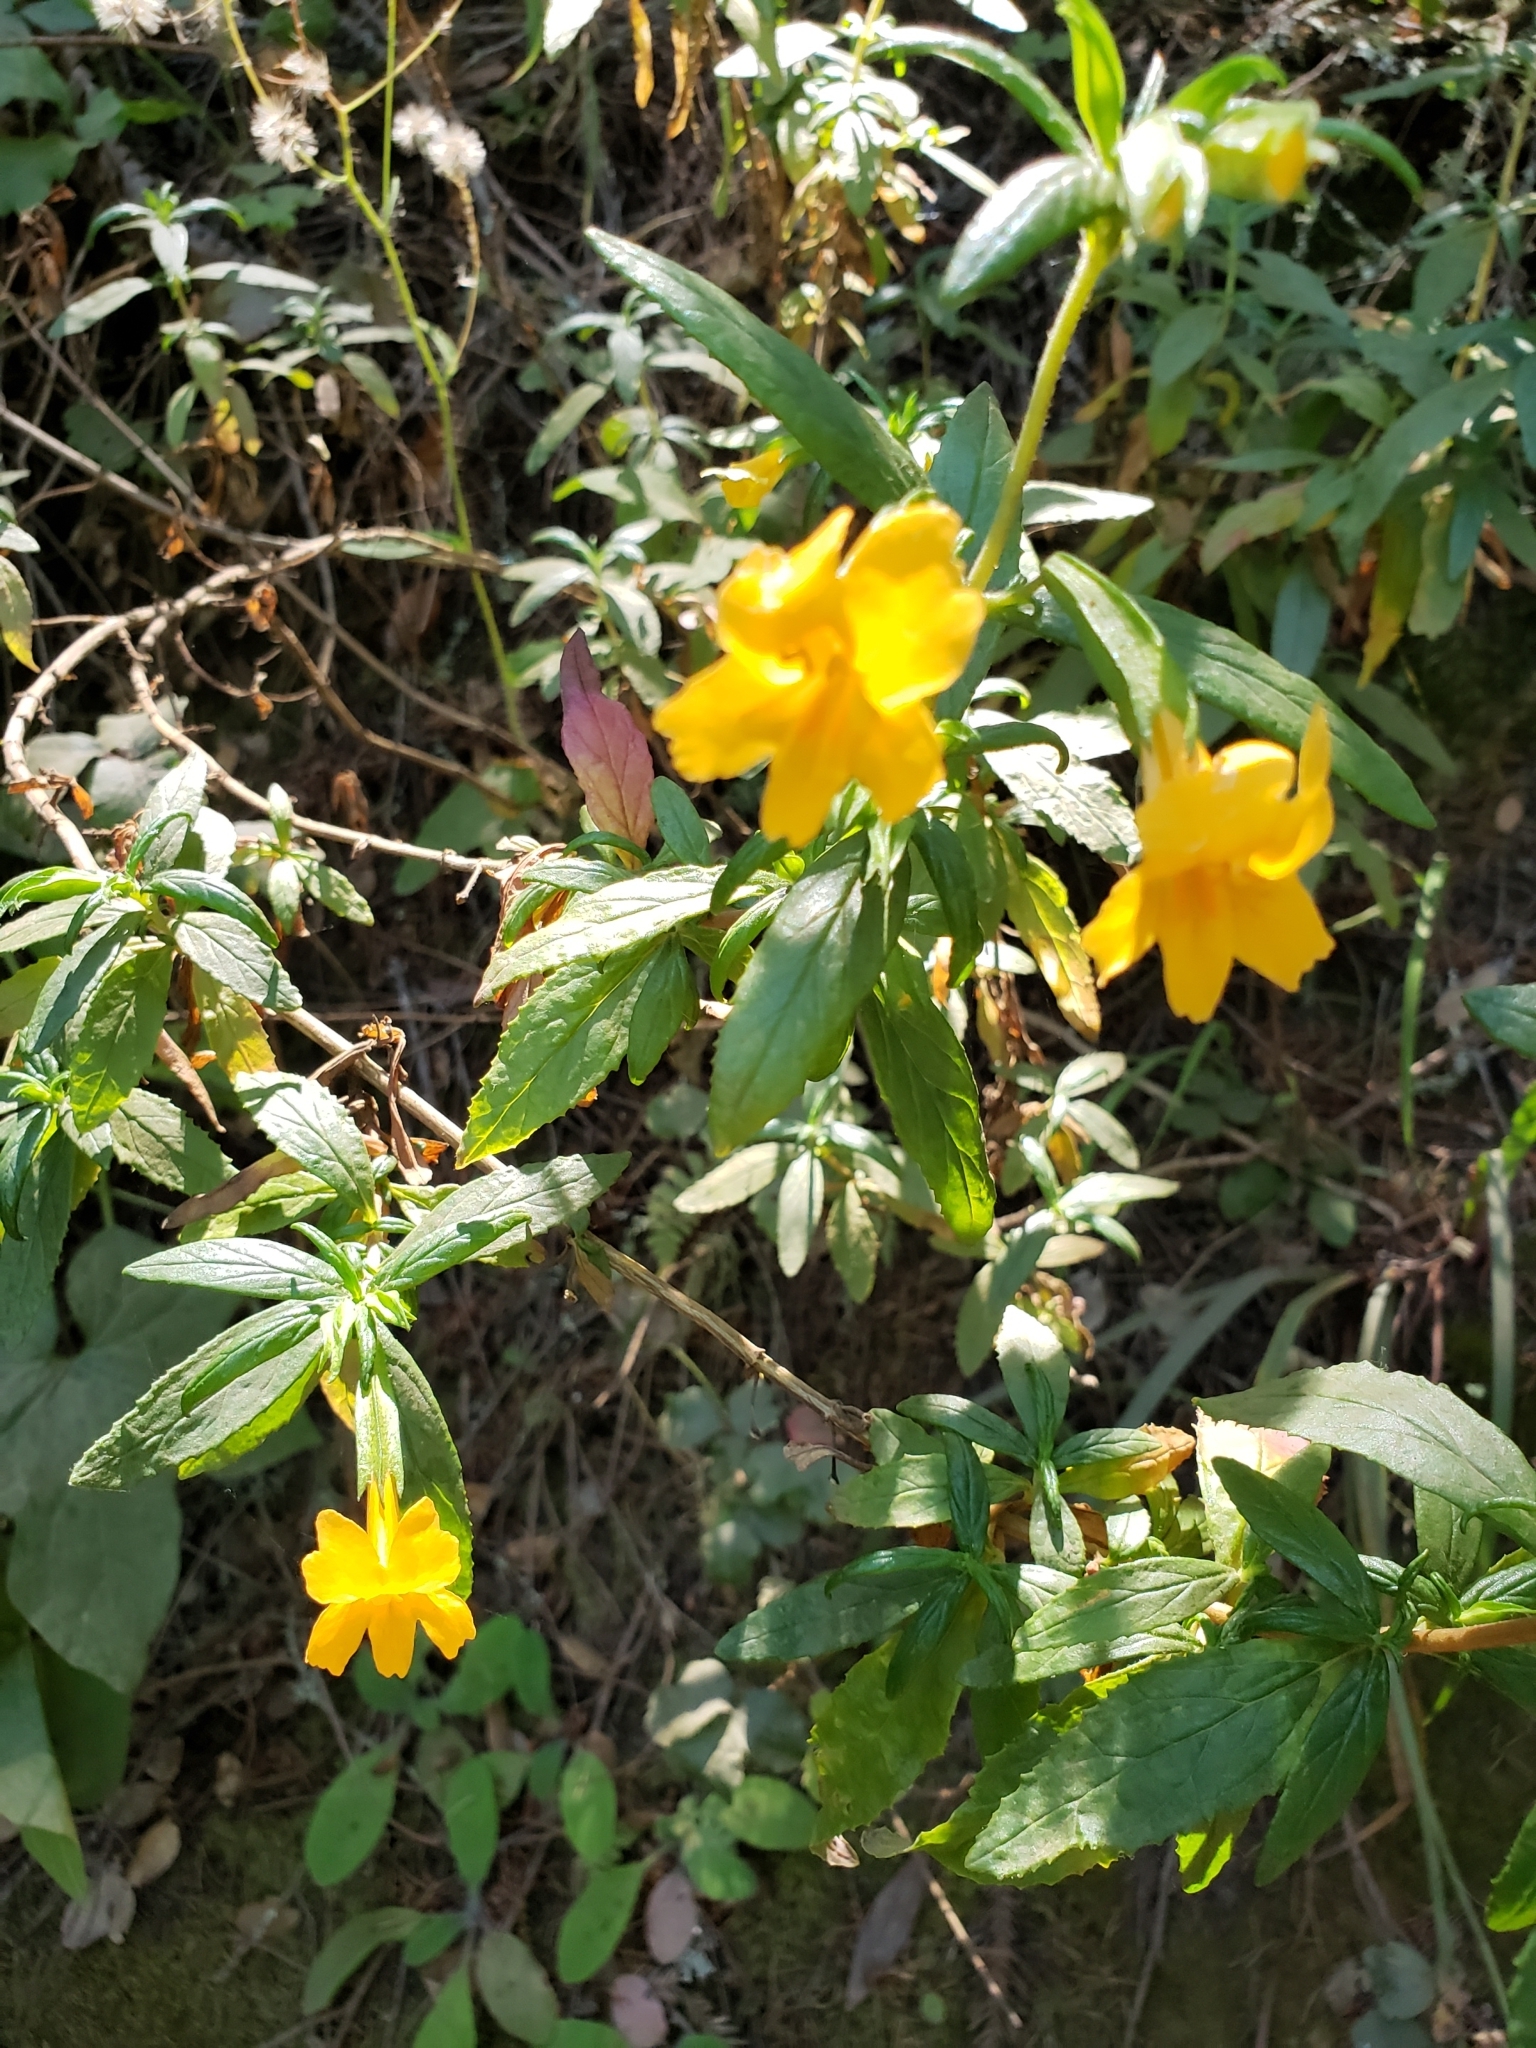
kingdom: Plantae
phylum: Tracheophyta
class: Magnoliopsida
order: Lamiales
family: Phrymaceae
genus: Diplacus
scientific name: Diplacus aurantiacus
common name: Bush monkey-flower
